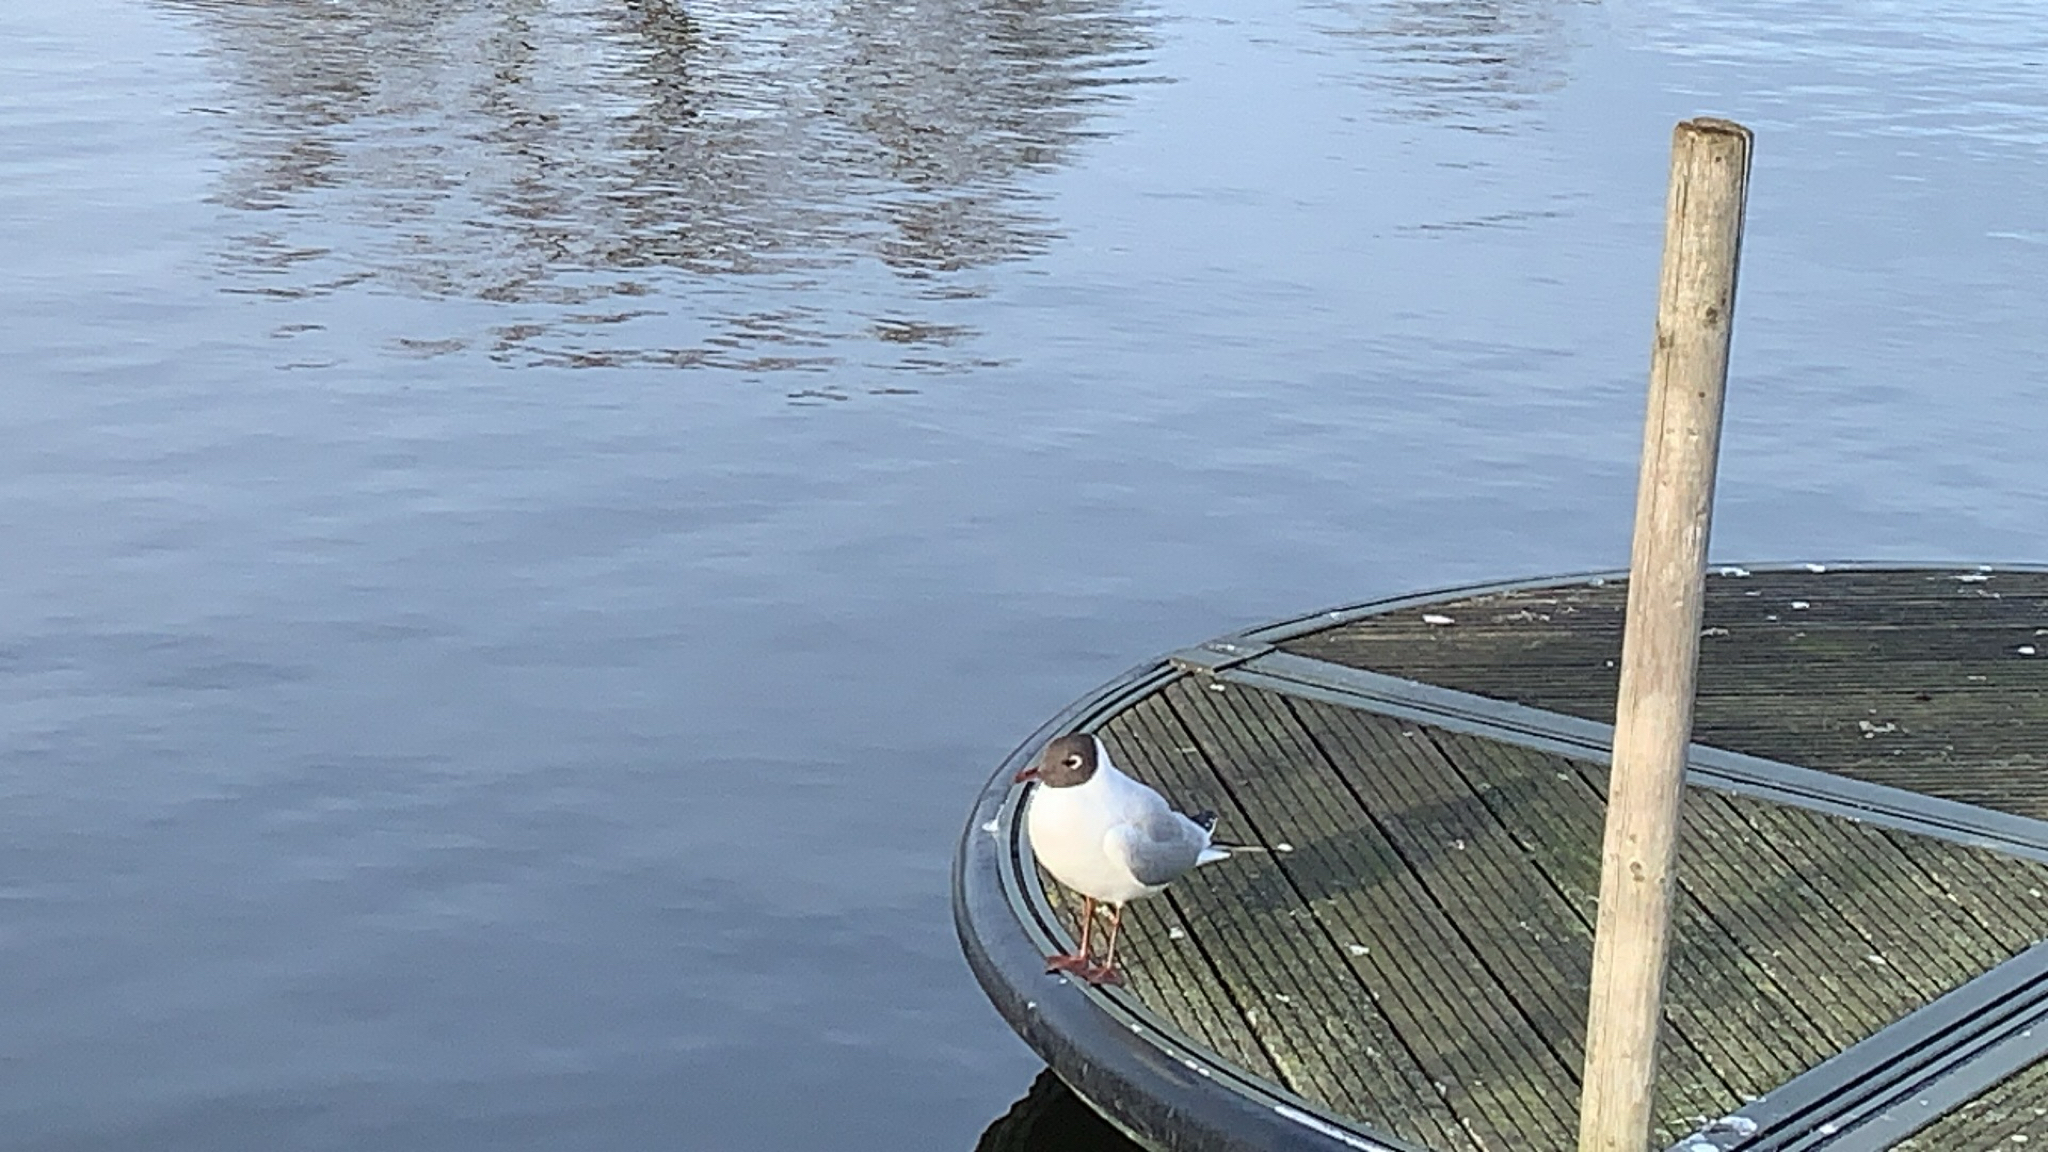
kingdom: Animalia
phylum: Chordata
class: Aves
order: Charadriiformes
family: Laridae
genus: Chroicocephalus
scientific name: Chroicocephalus ridibundus
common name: Black-headed gull
